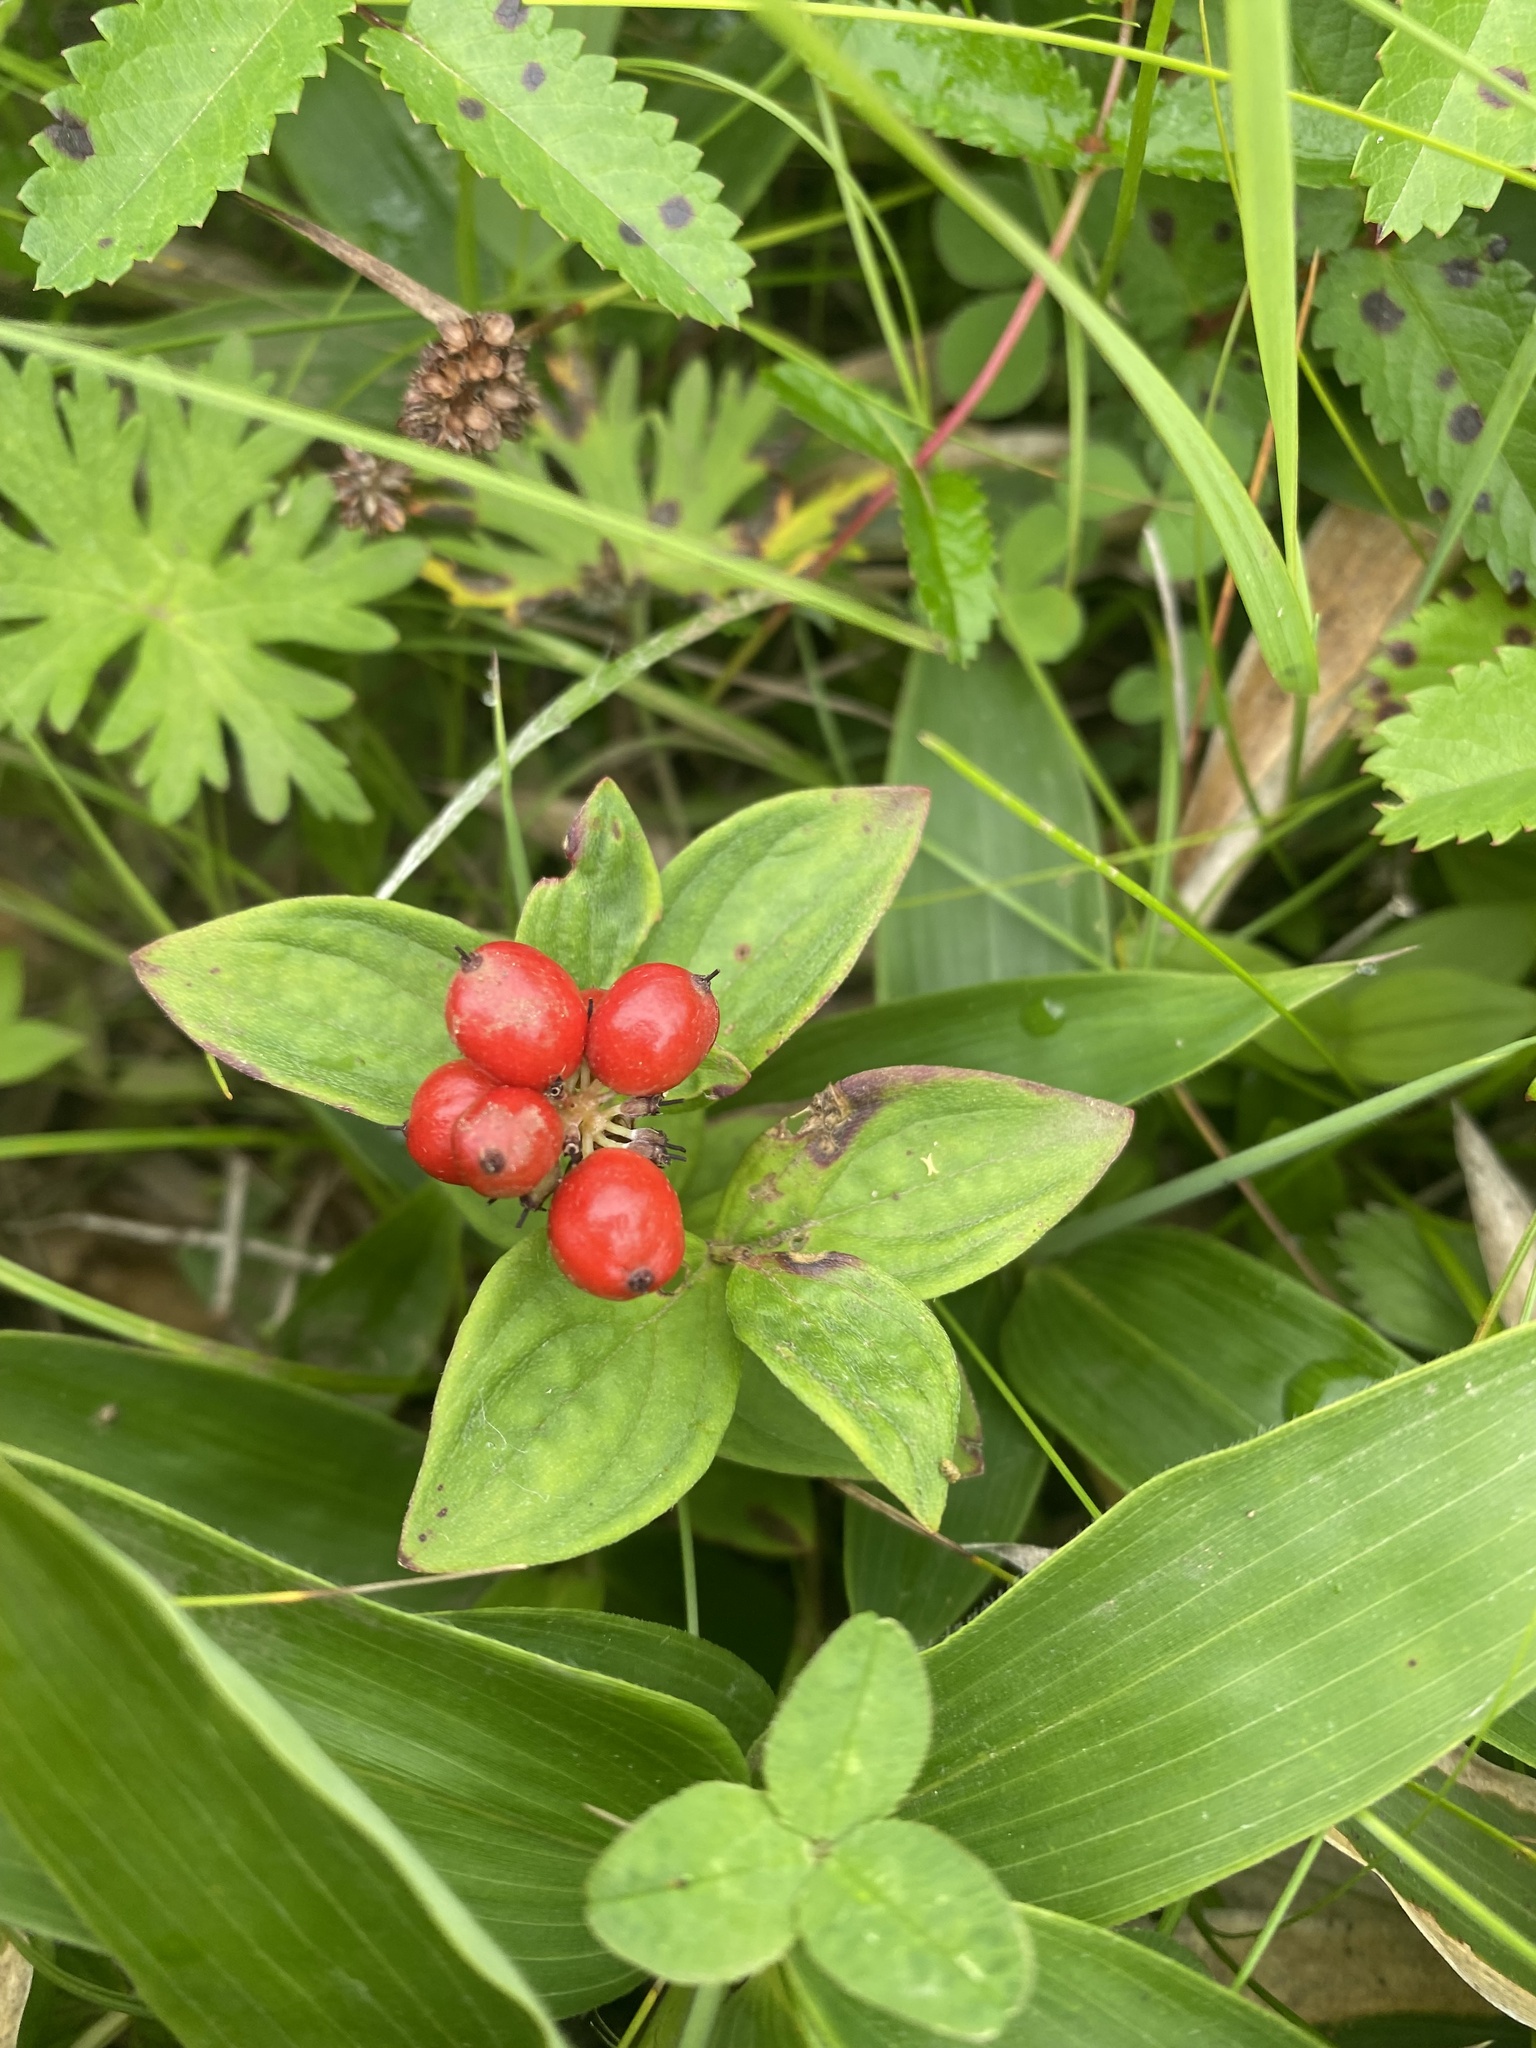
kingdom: Plantae
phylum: Tracheophyta
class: Magnoliopsida
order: Cornales
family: Cornaceae
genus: Cornus
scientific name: Cornus suecica
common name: Dwarf cornel
